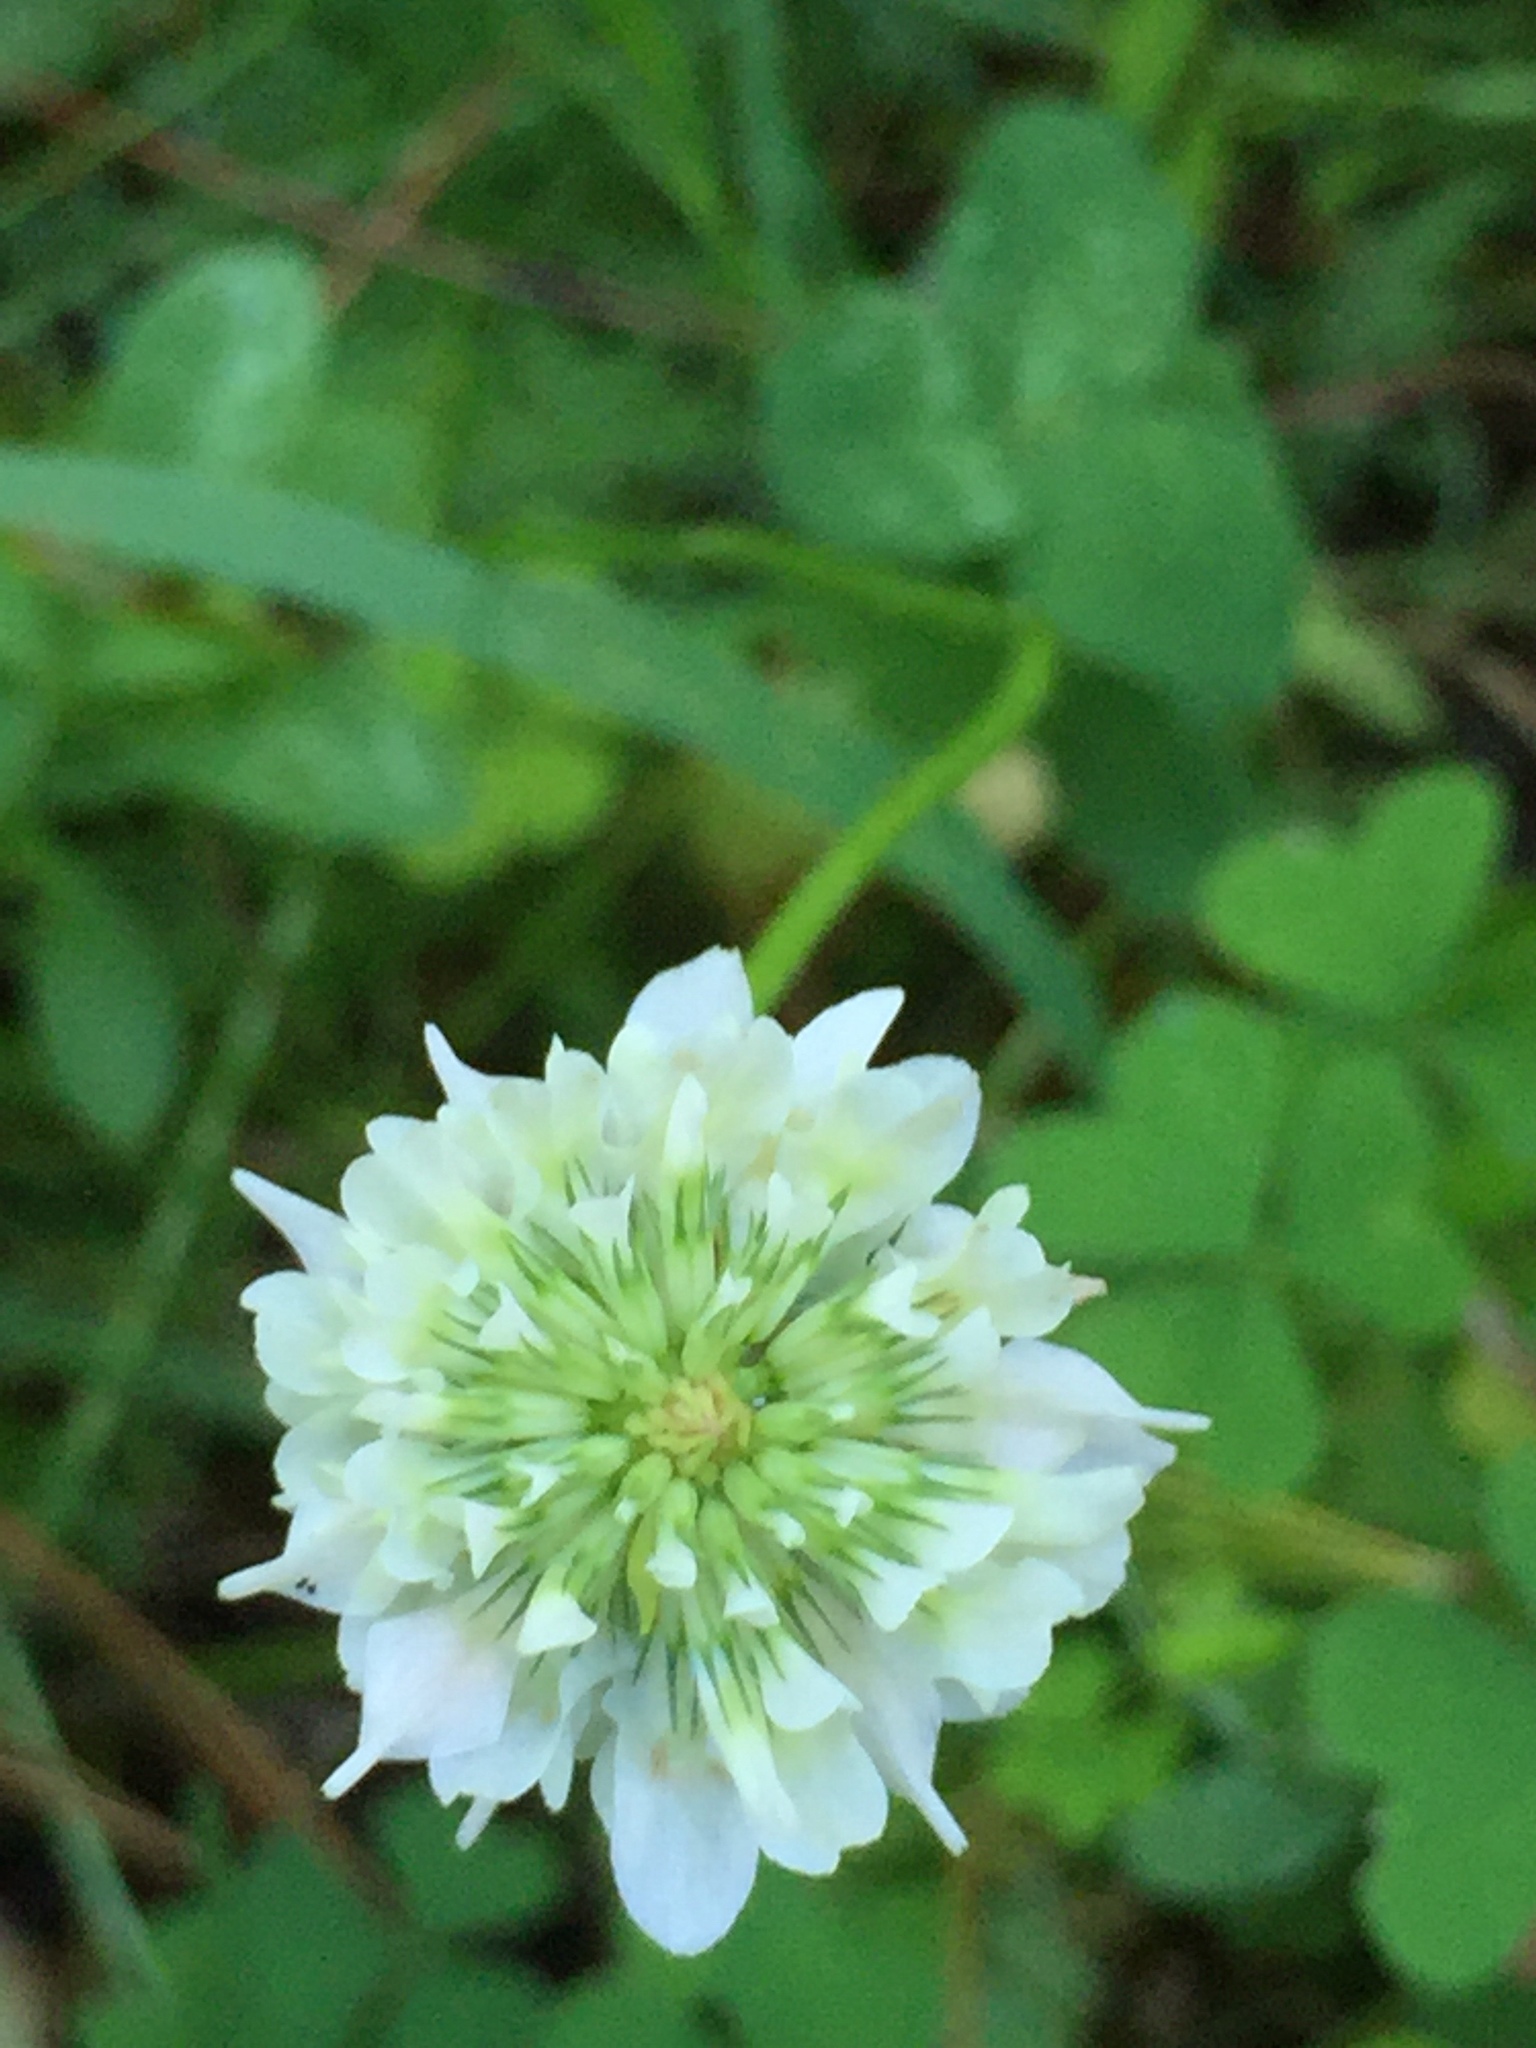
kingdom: Plantae
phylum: Tracheophyta
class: Magnoliopsida
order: Fabales
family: Fabaceae
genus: Trifolium
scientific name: Trifolium repens
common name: White clover
